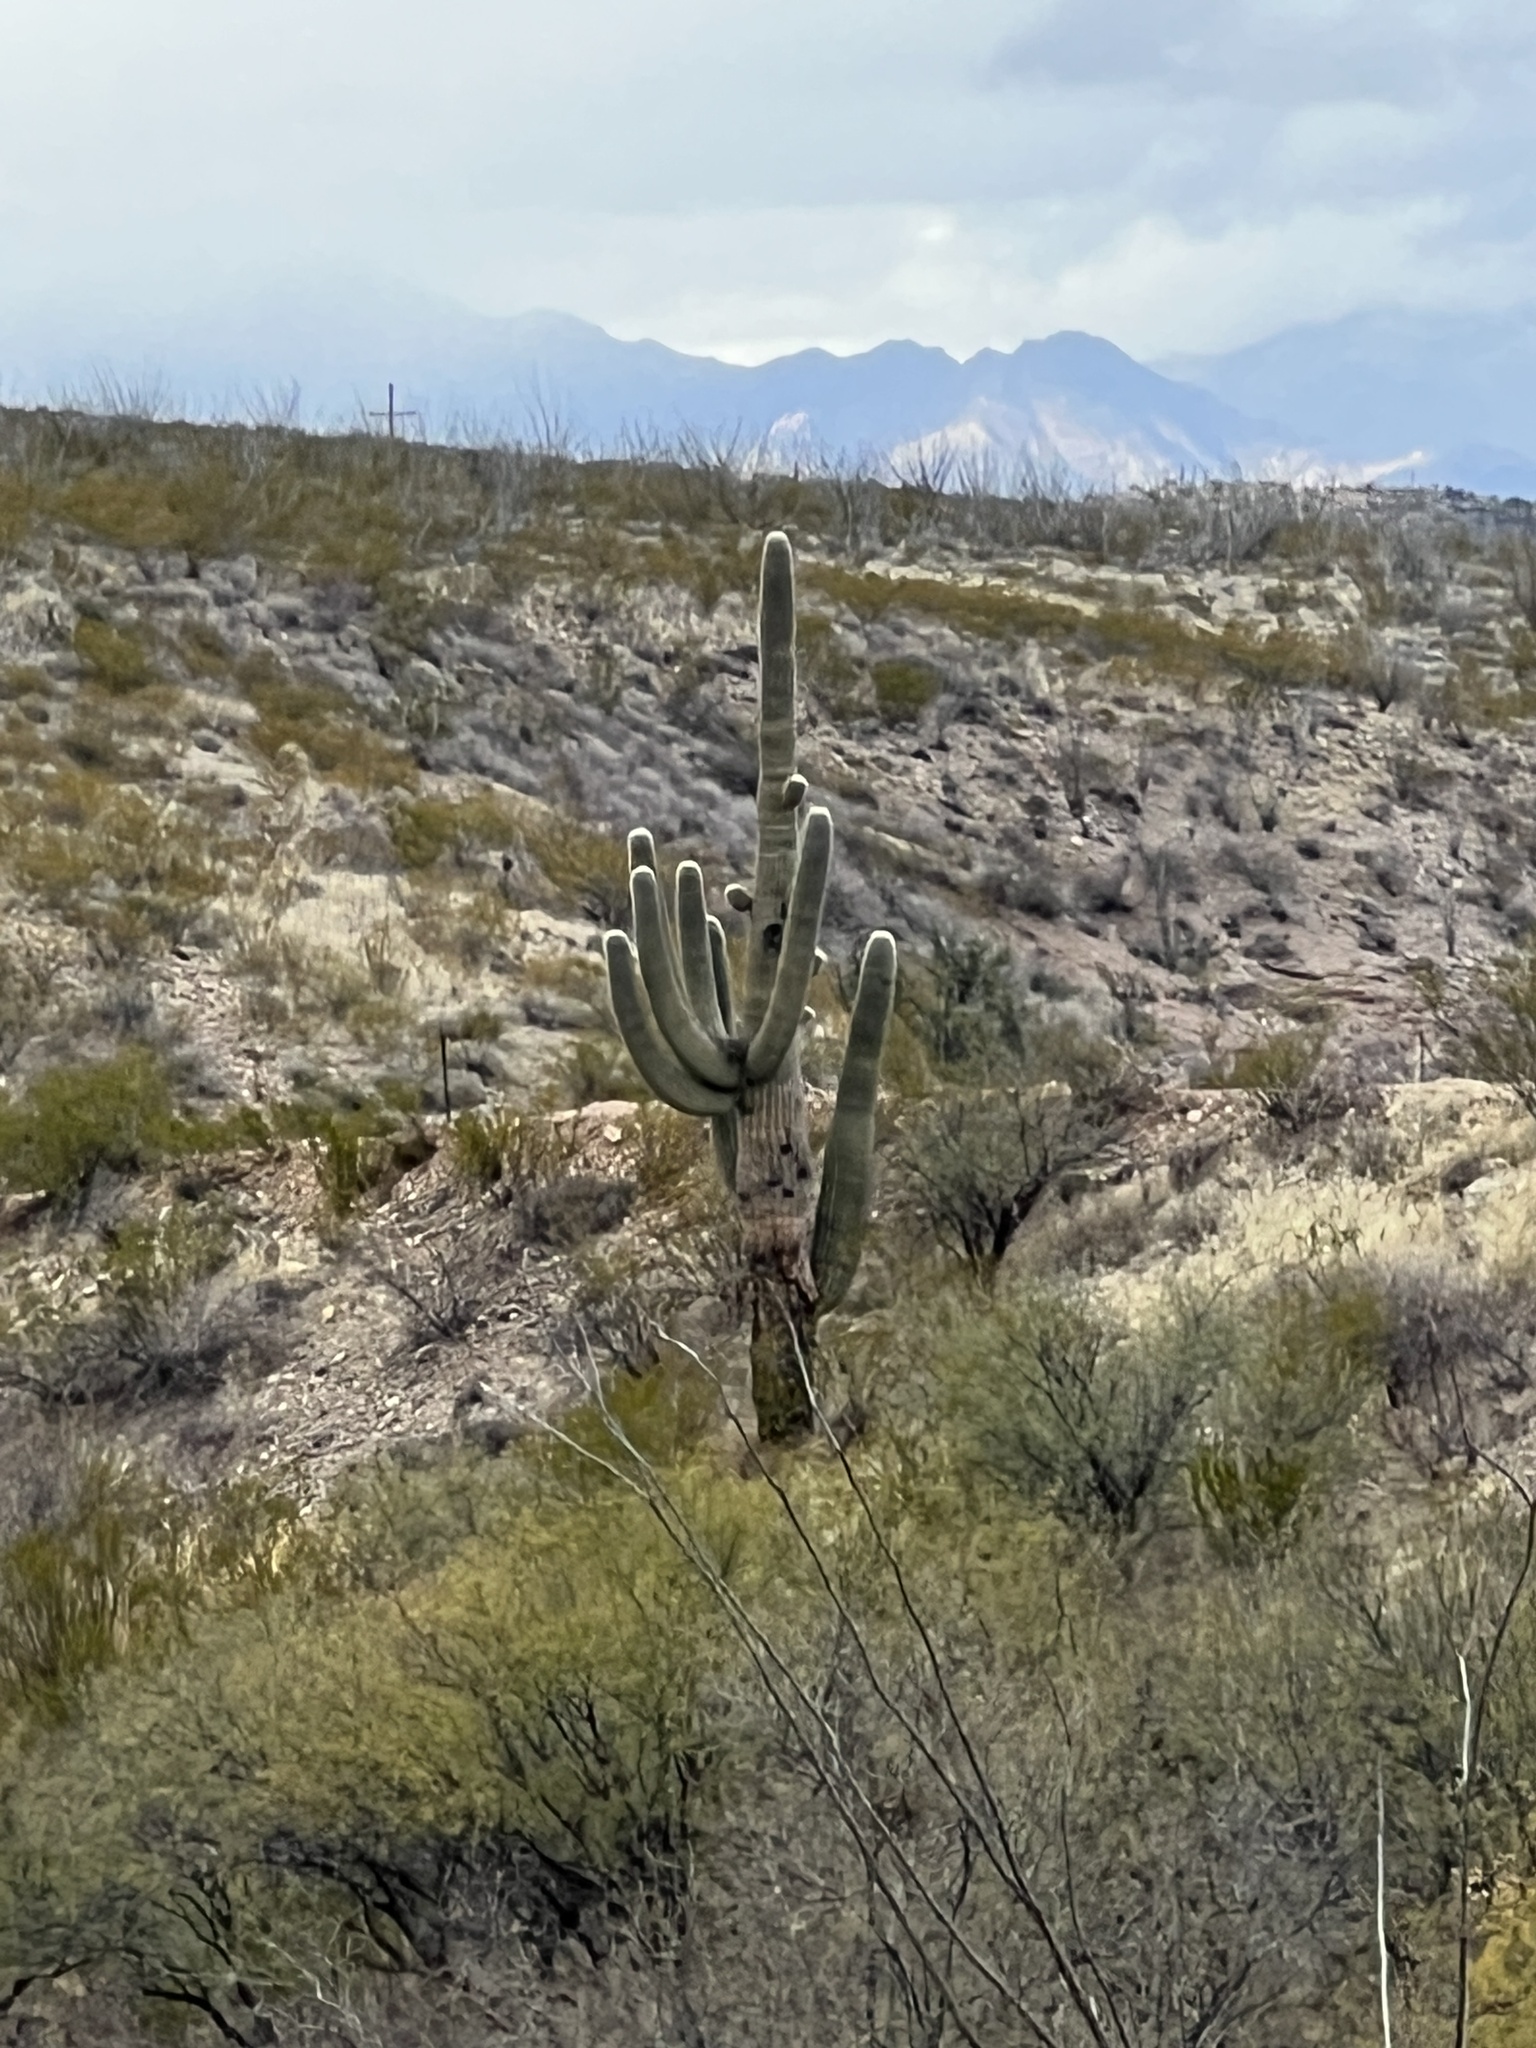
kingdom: Plantae
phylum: Tracheophyta
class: Magnoliopsida
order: Caryophyllales
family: Cactaceae
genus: Carnegiea
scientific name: Carnegiea gigantea
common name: Saguaro
